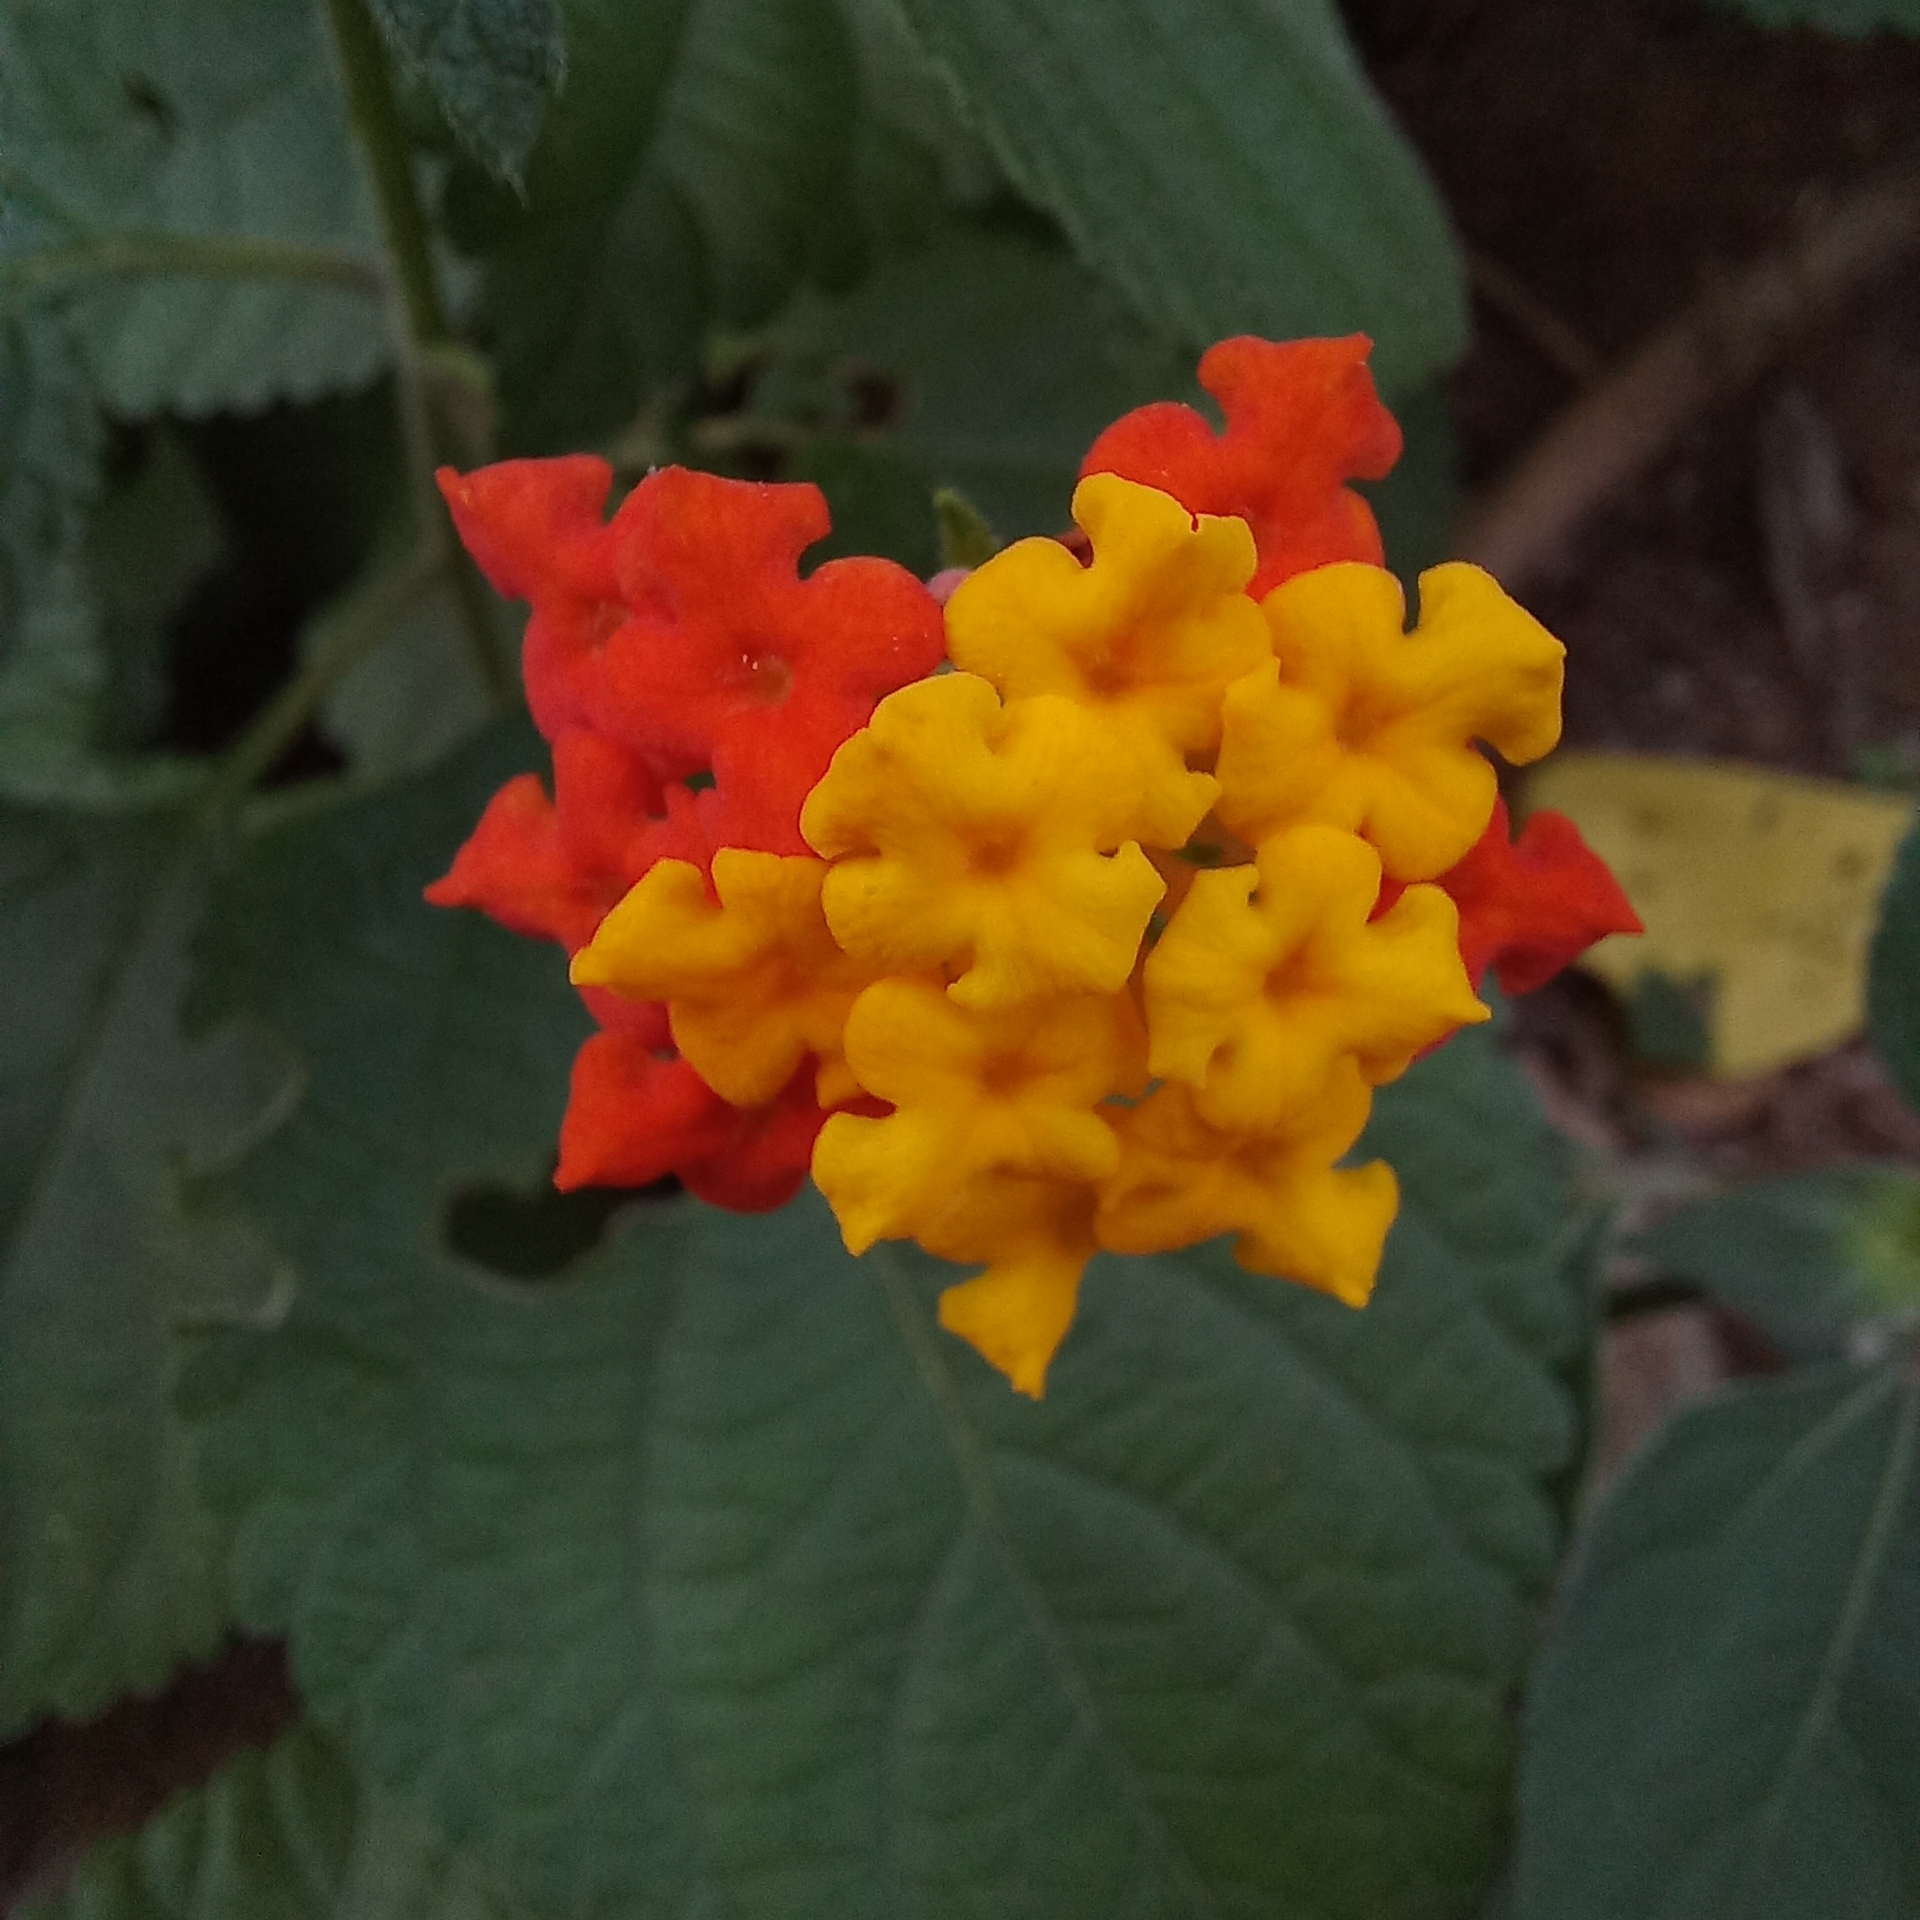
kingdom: Plantae
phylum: Tracheophyta
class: Magnoliopsida
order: Lamiales
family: Verbenaceae
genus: Lantana
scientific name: Lantana camara
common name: Lantana
